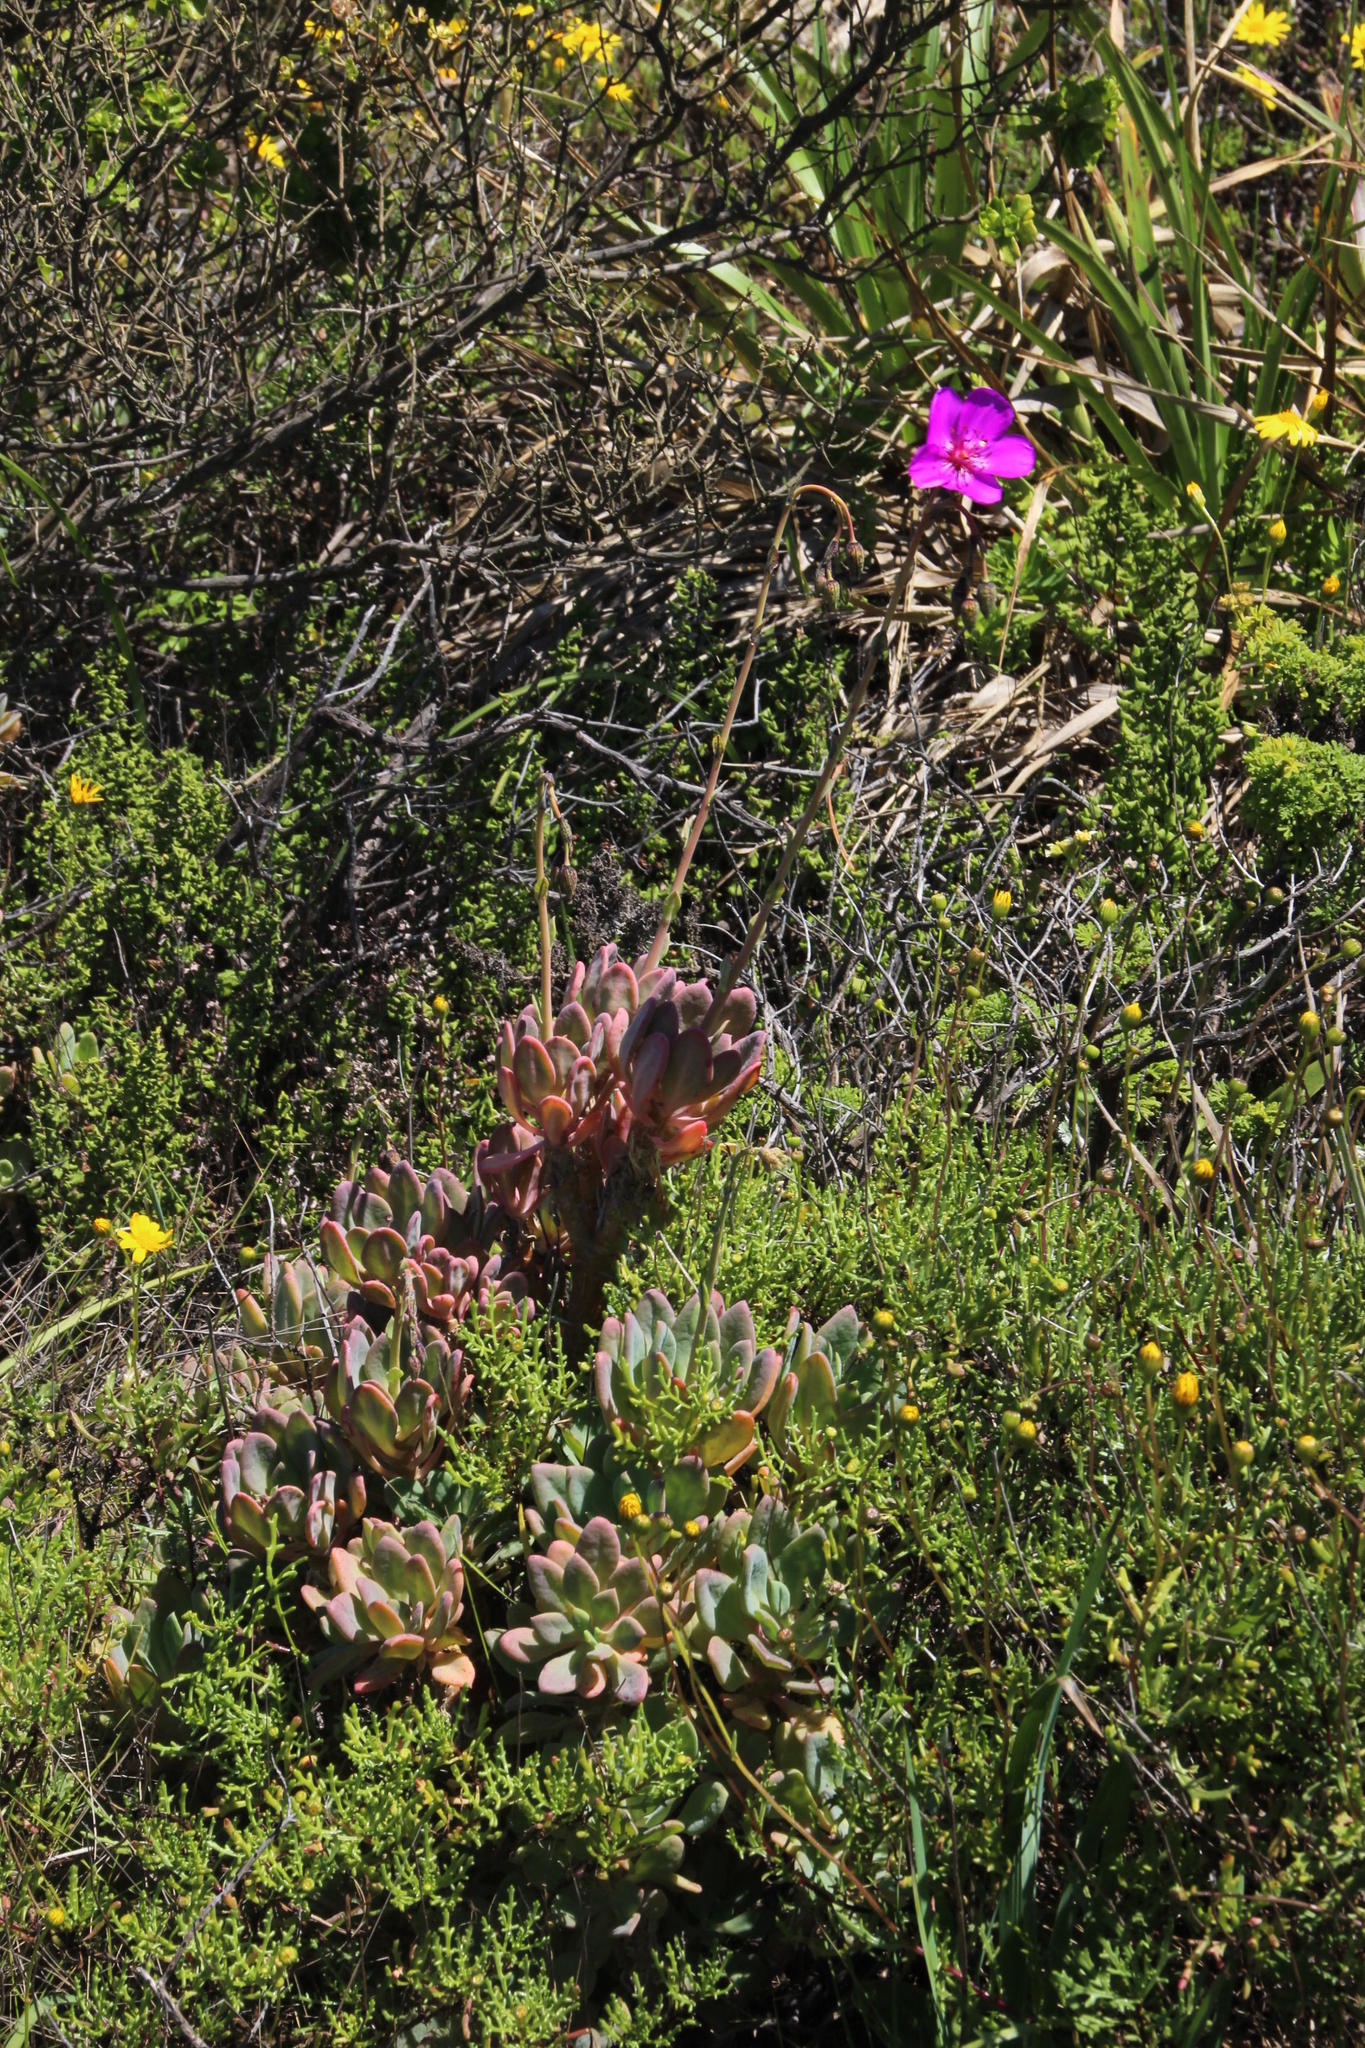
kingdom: Plantae
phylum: Tracheophyta
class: Magnoliopsida
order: Caryophyllales
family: Montiaceae
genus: Cistanthe
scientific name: Cistanthe laxiflora
